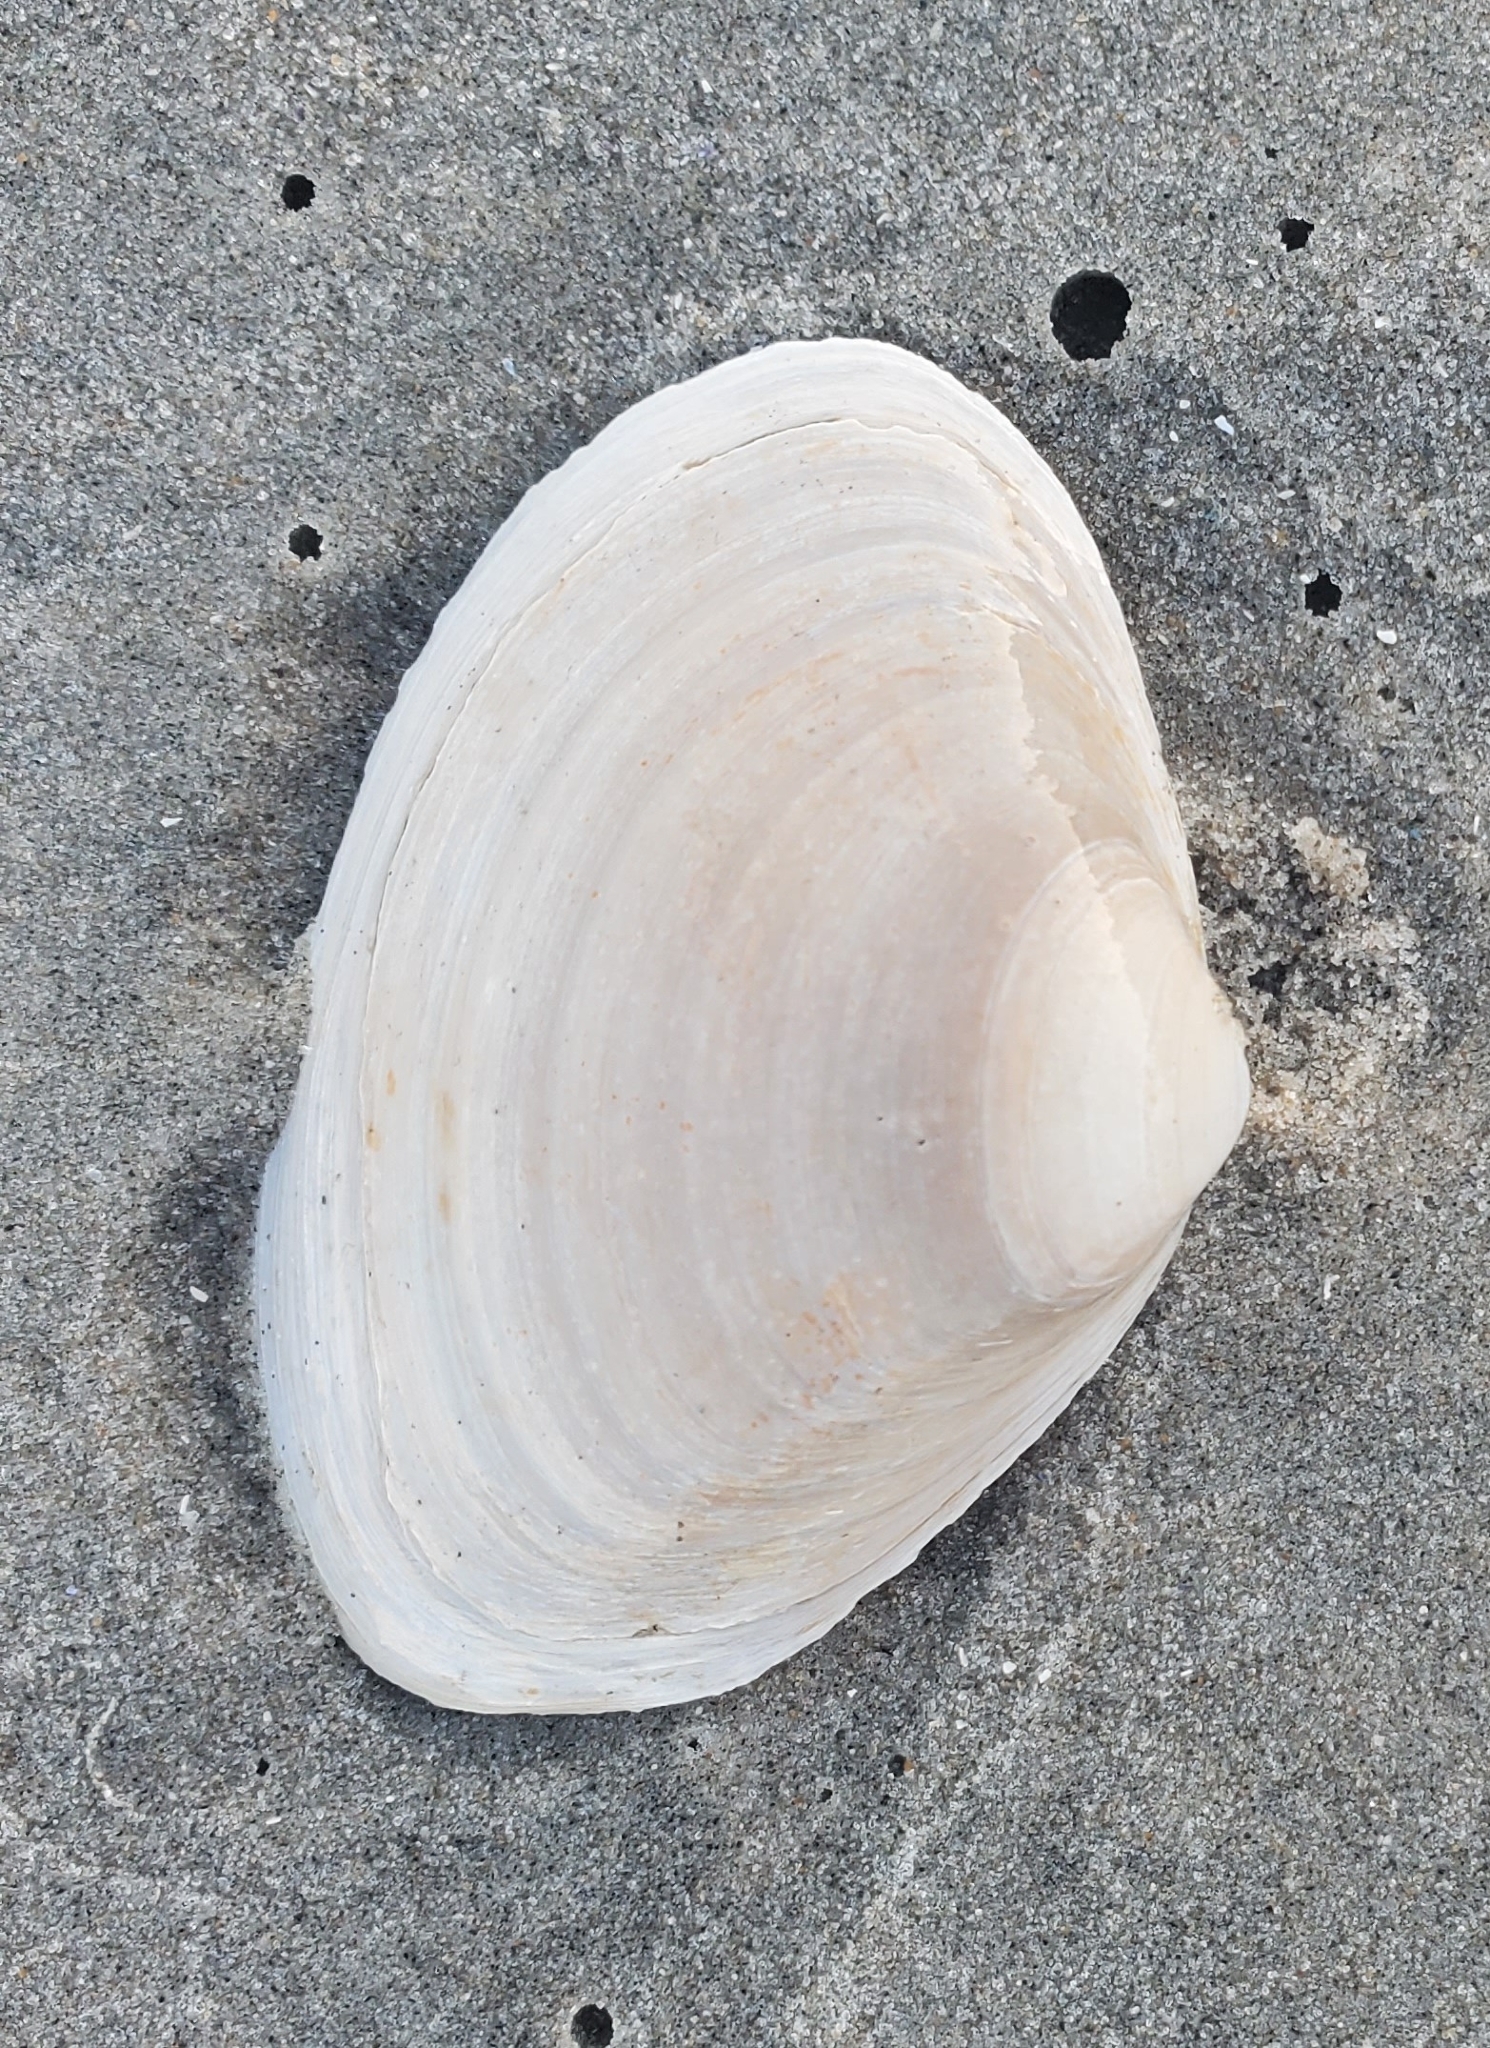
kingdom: Animalia
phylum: Mollusca
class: Bivalvia
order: Venerida
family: Mactridae
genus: Spisula
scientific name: Spisula solidissima
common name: Atlantic surf clam
